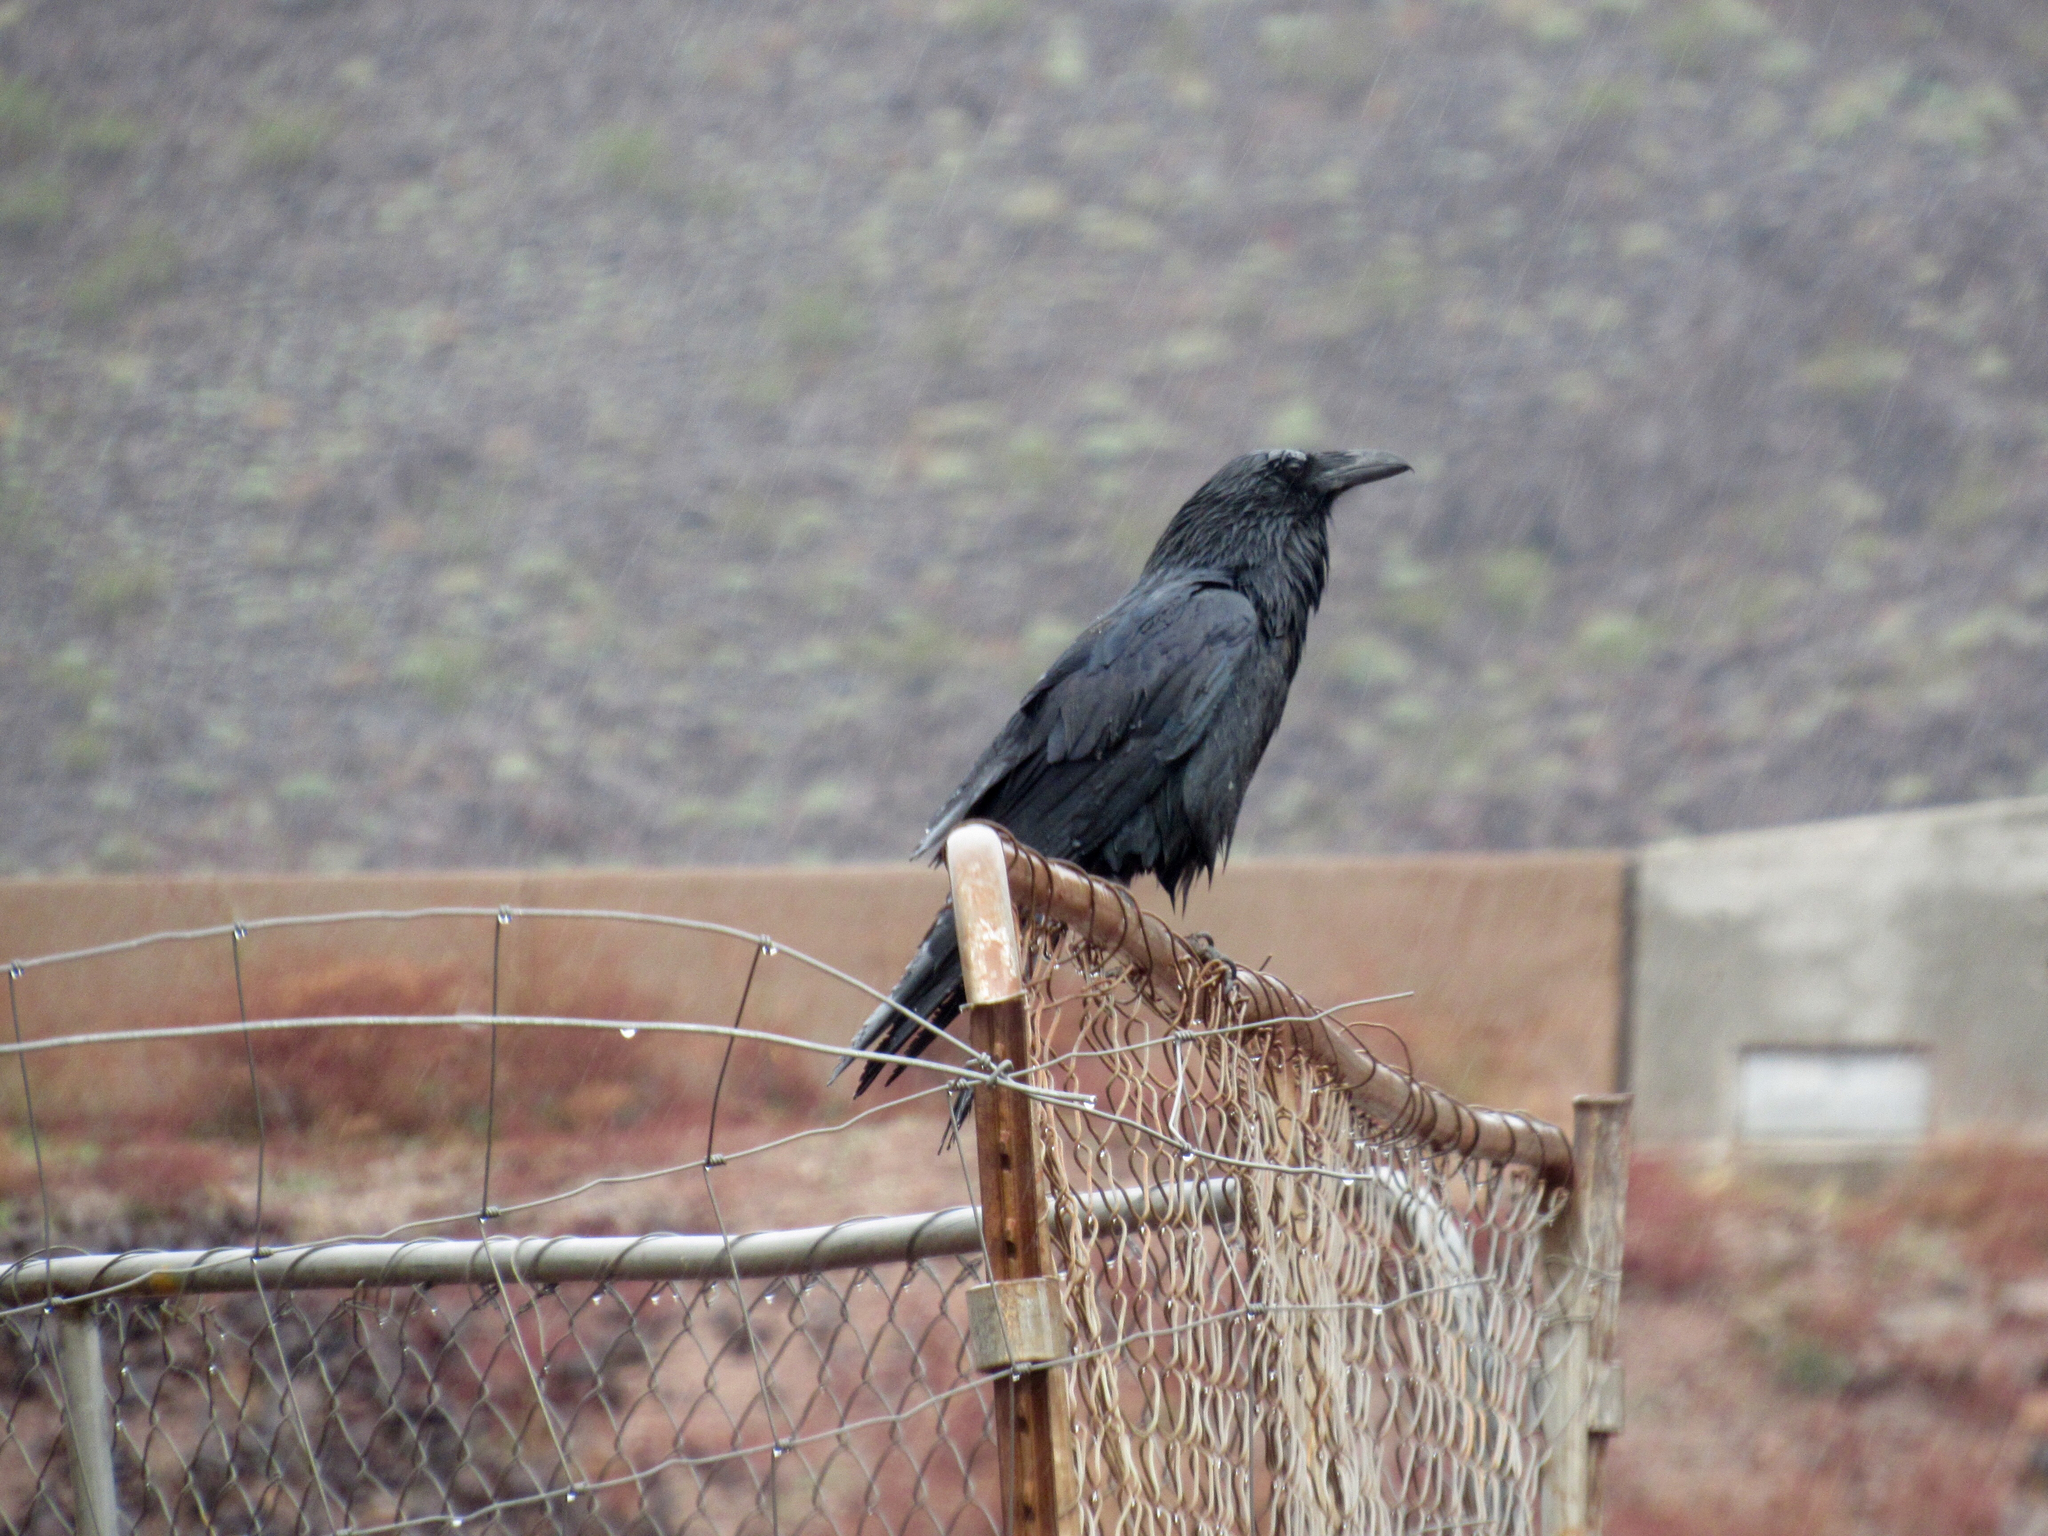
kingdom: Animalia
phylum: Chordata
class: Aves
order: Passeriformes
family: Corvidae
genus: Corvus
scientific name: Corvus corax
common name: Common raven
